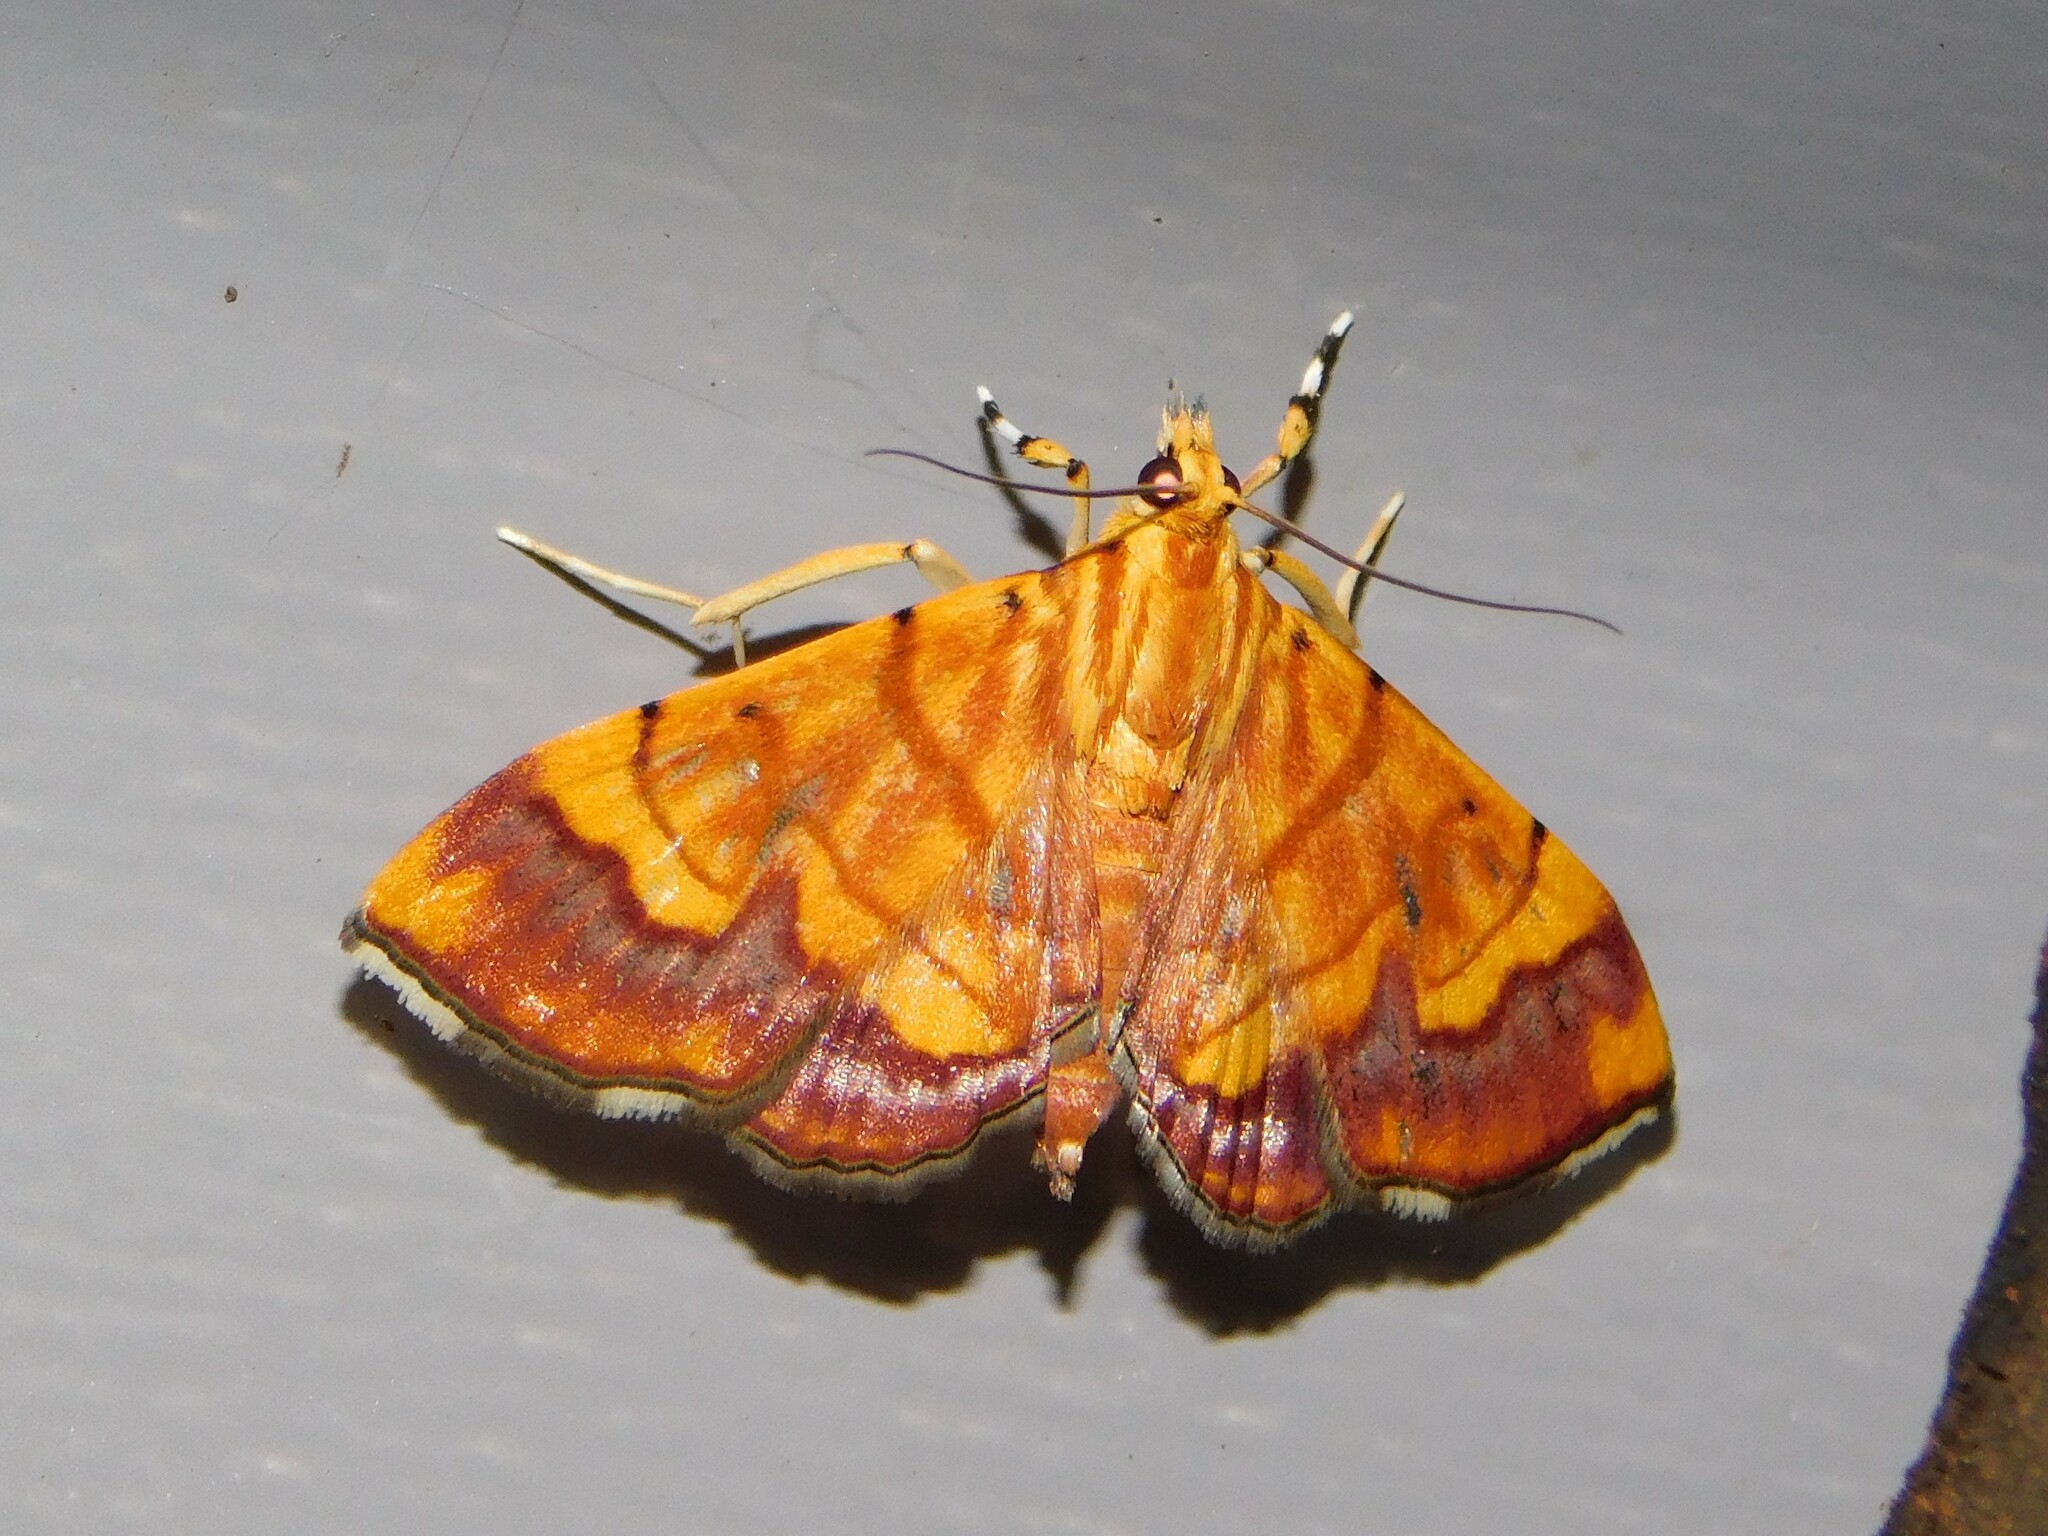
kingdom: Animalia
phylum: Arthropoda
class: Insecta
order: Lepidoptera
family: Crambidae
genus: Cryptosara
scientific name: Cryptosara caritalis
